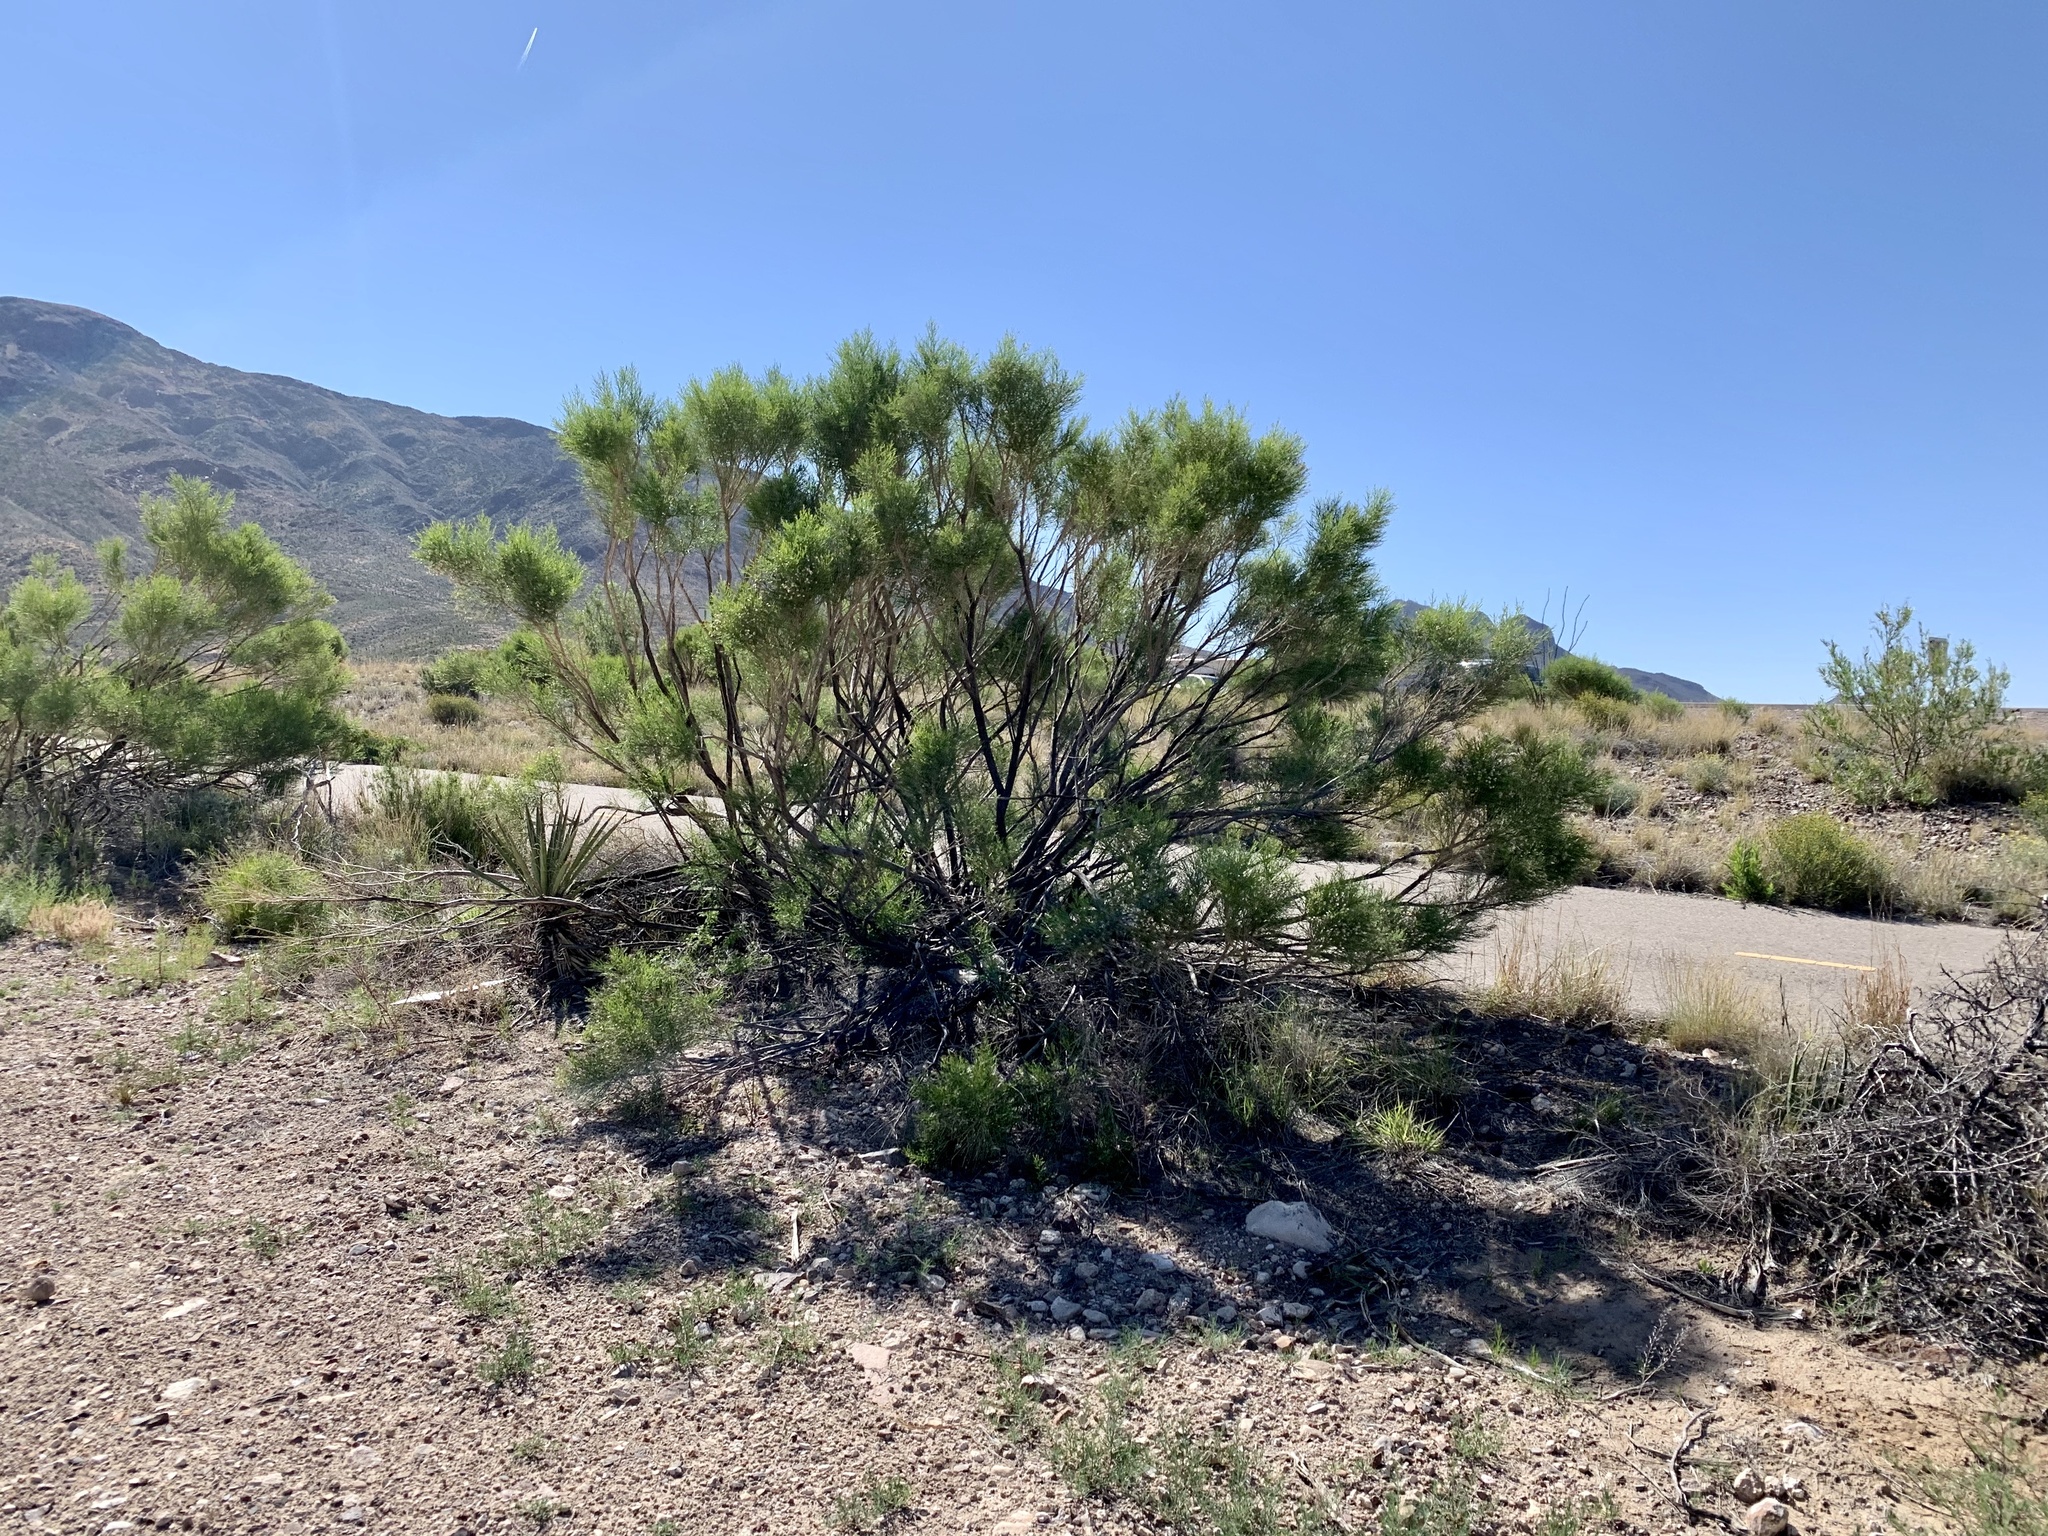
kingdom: Plantae
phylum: Tracheophyta
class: Magnoliopsida
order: Asterales
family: Asteraceae
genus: Baccharis
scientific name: Baccharis sarothroides
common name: Desert-broom
